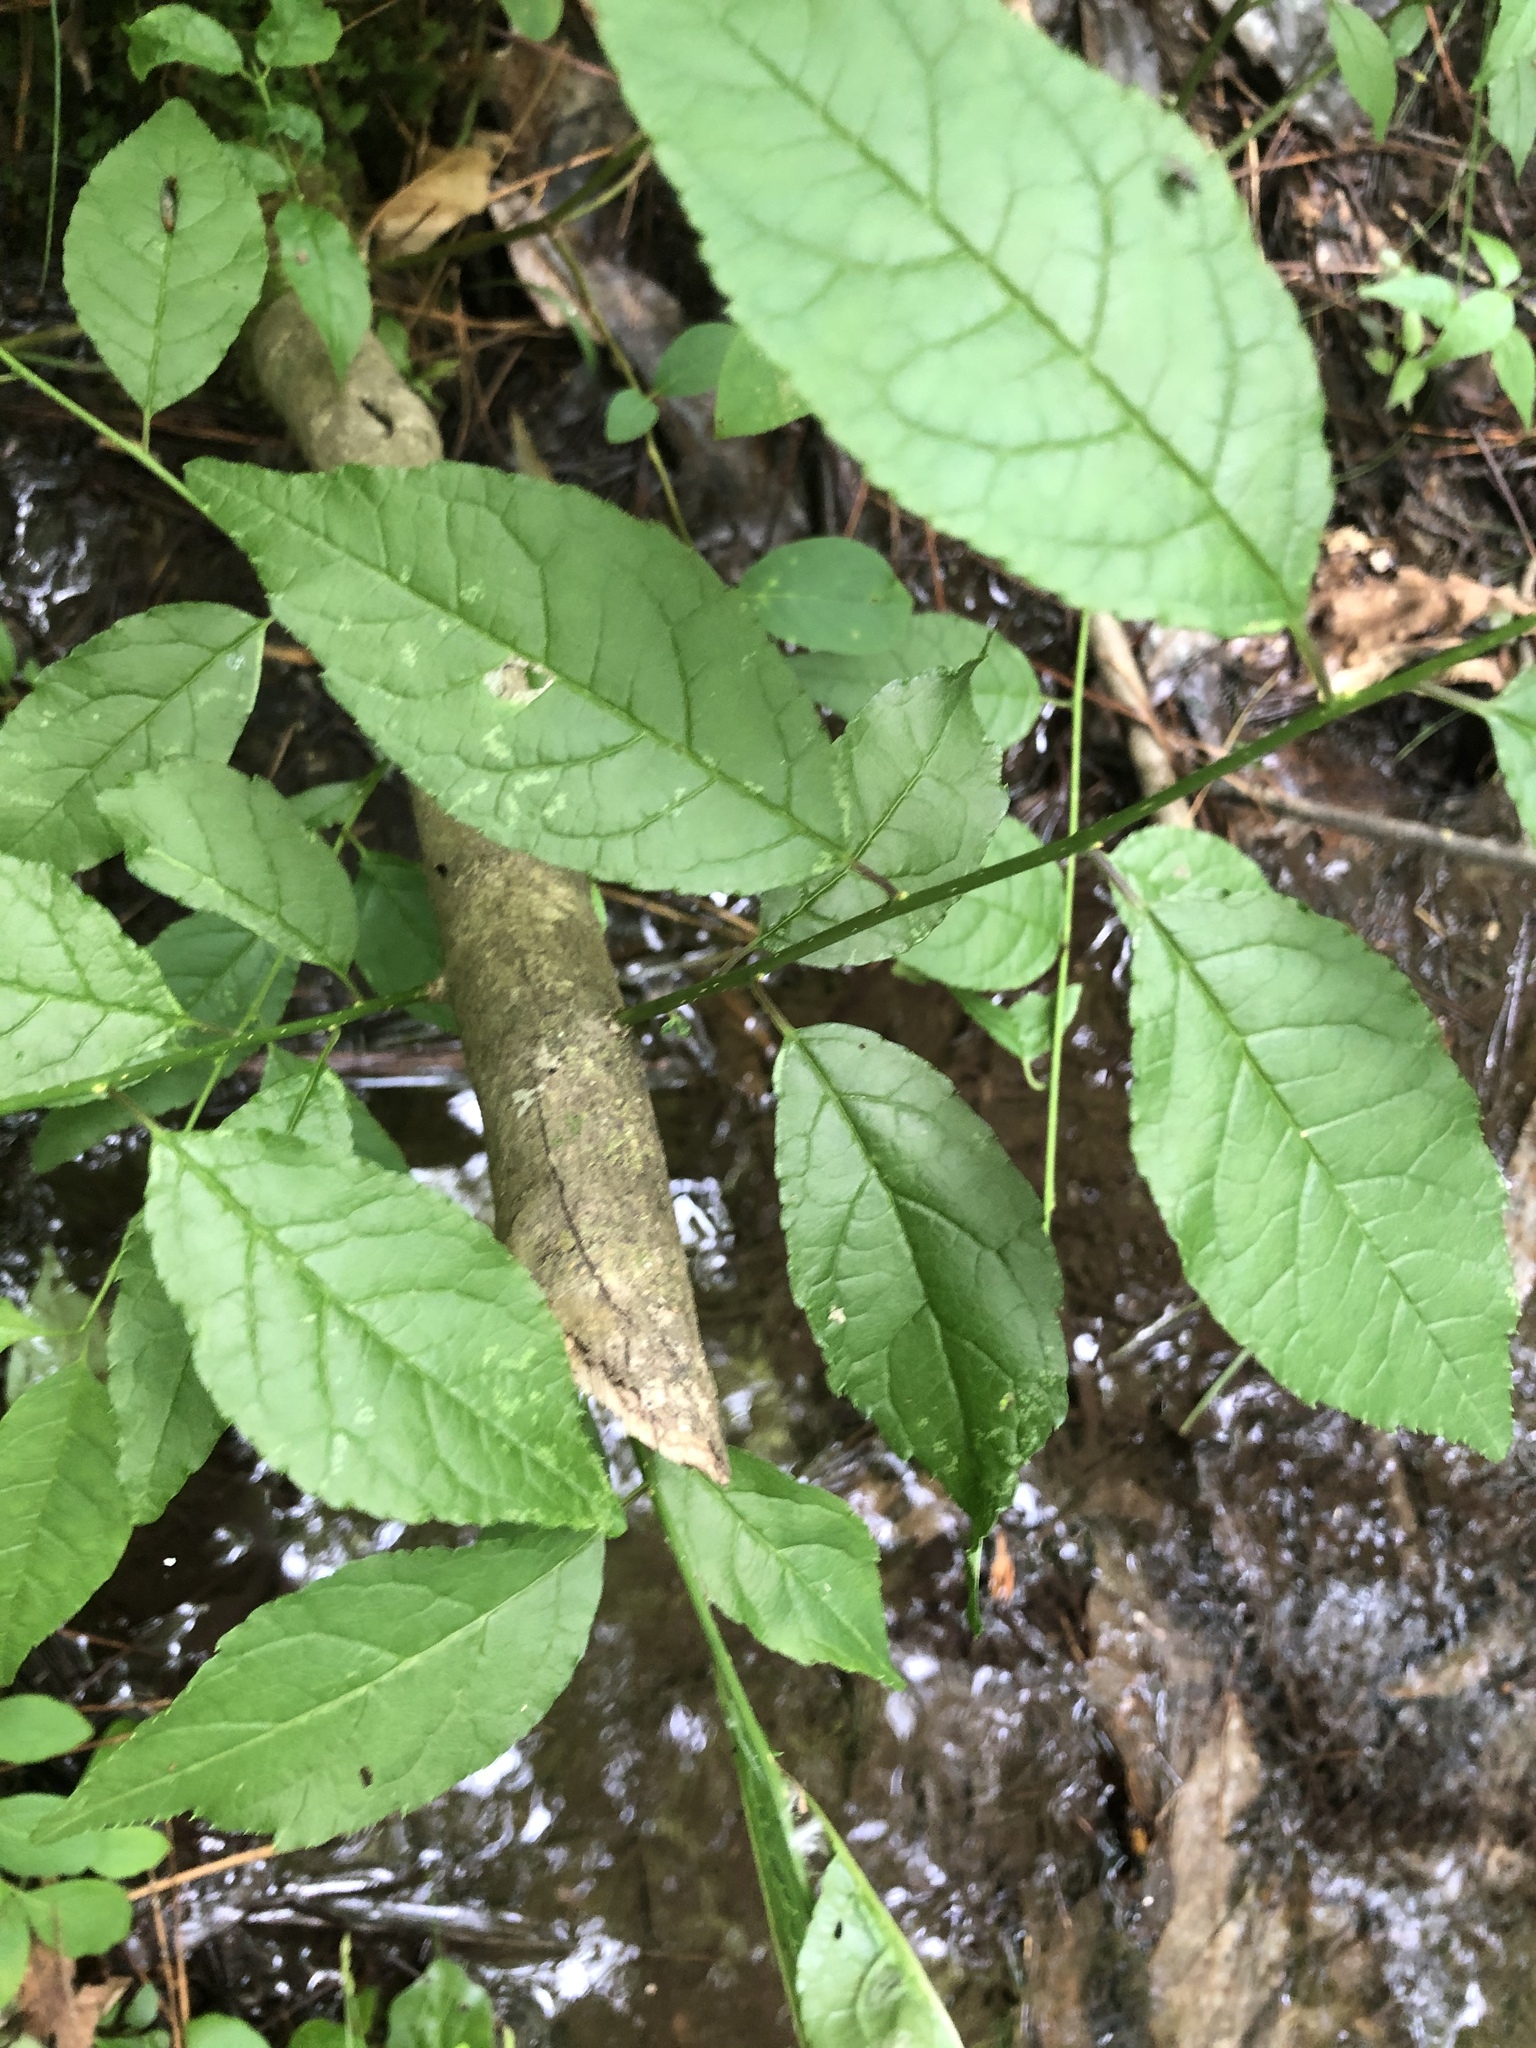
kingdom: Plantae
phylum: Tracheophyta
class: Magnoliopsida
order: Aquifoliales
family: Aquifoliaceae
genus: Ilex
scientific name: Ilex verticillata
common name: Virginia winterberry
